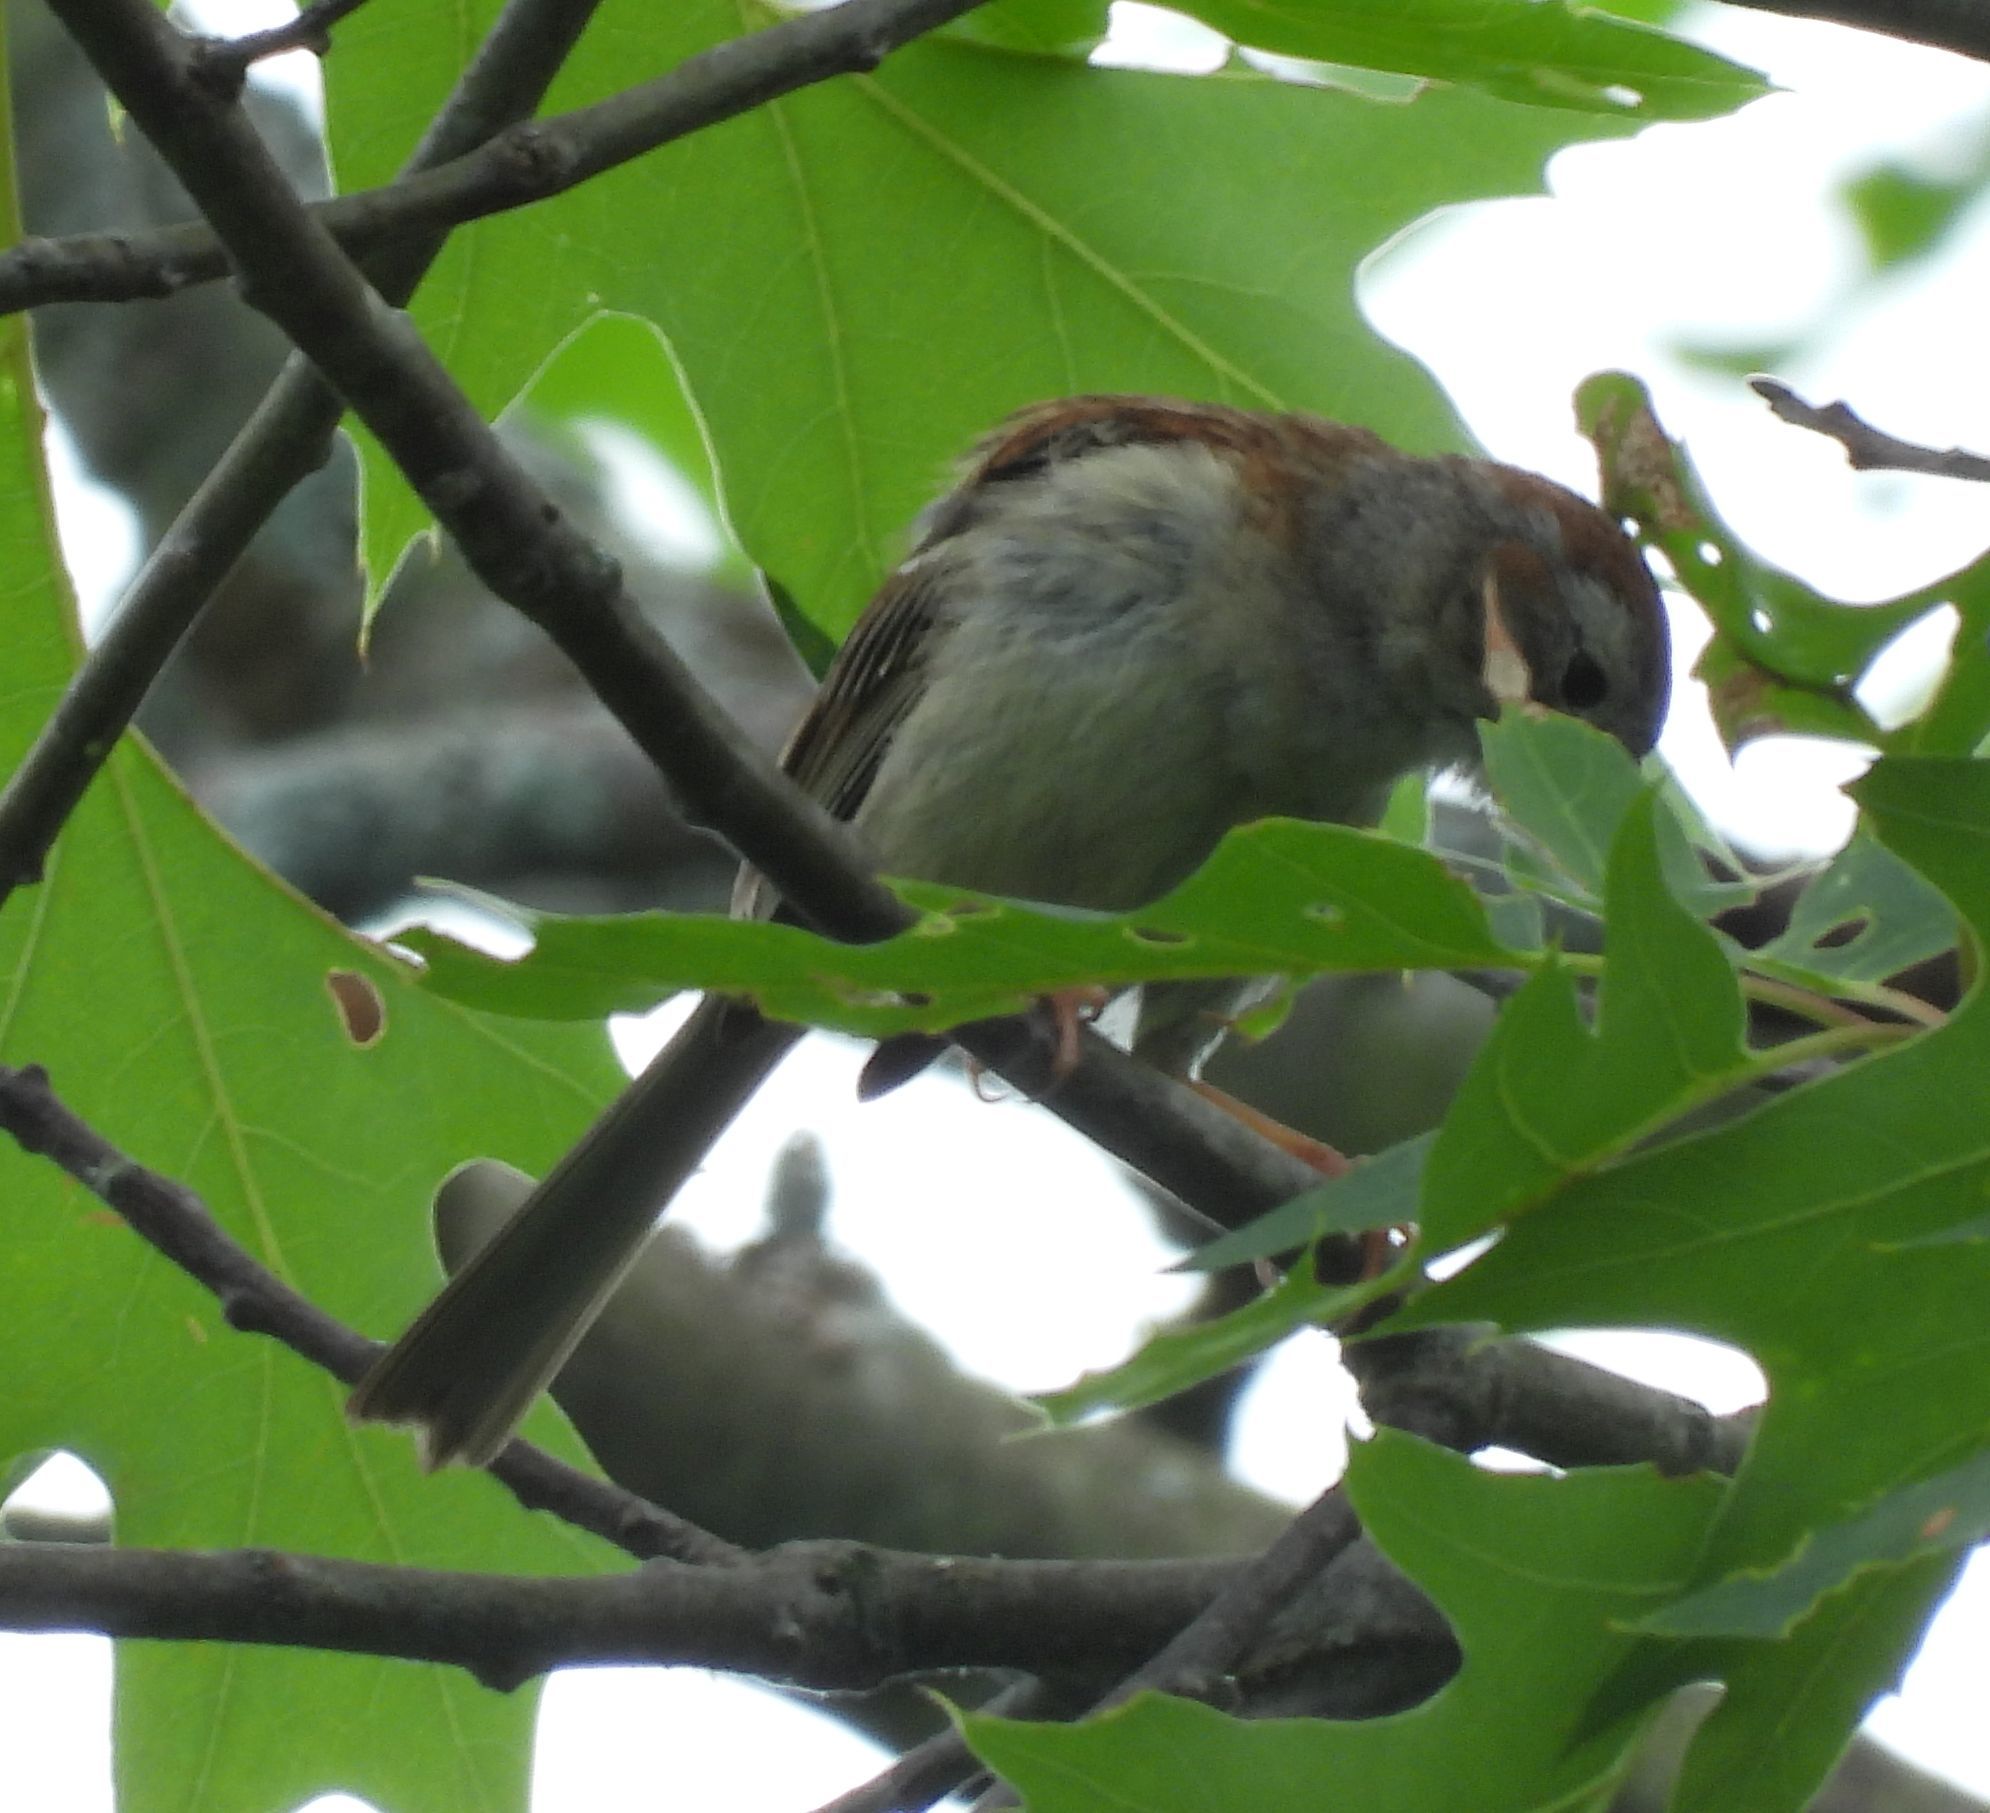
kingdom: Animalia
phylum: Chordata
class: Aves
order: Passeriformes
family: Passerellidae
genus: Spizella
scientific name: Spizella pusilla
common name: Field sparrow
